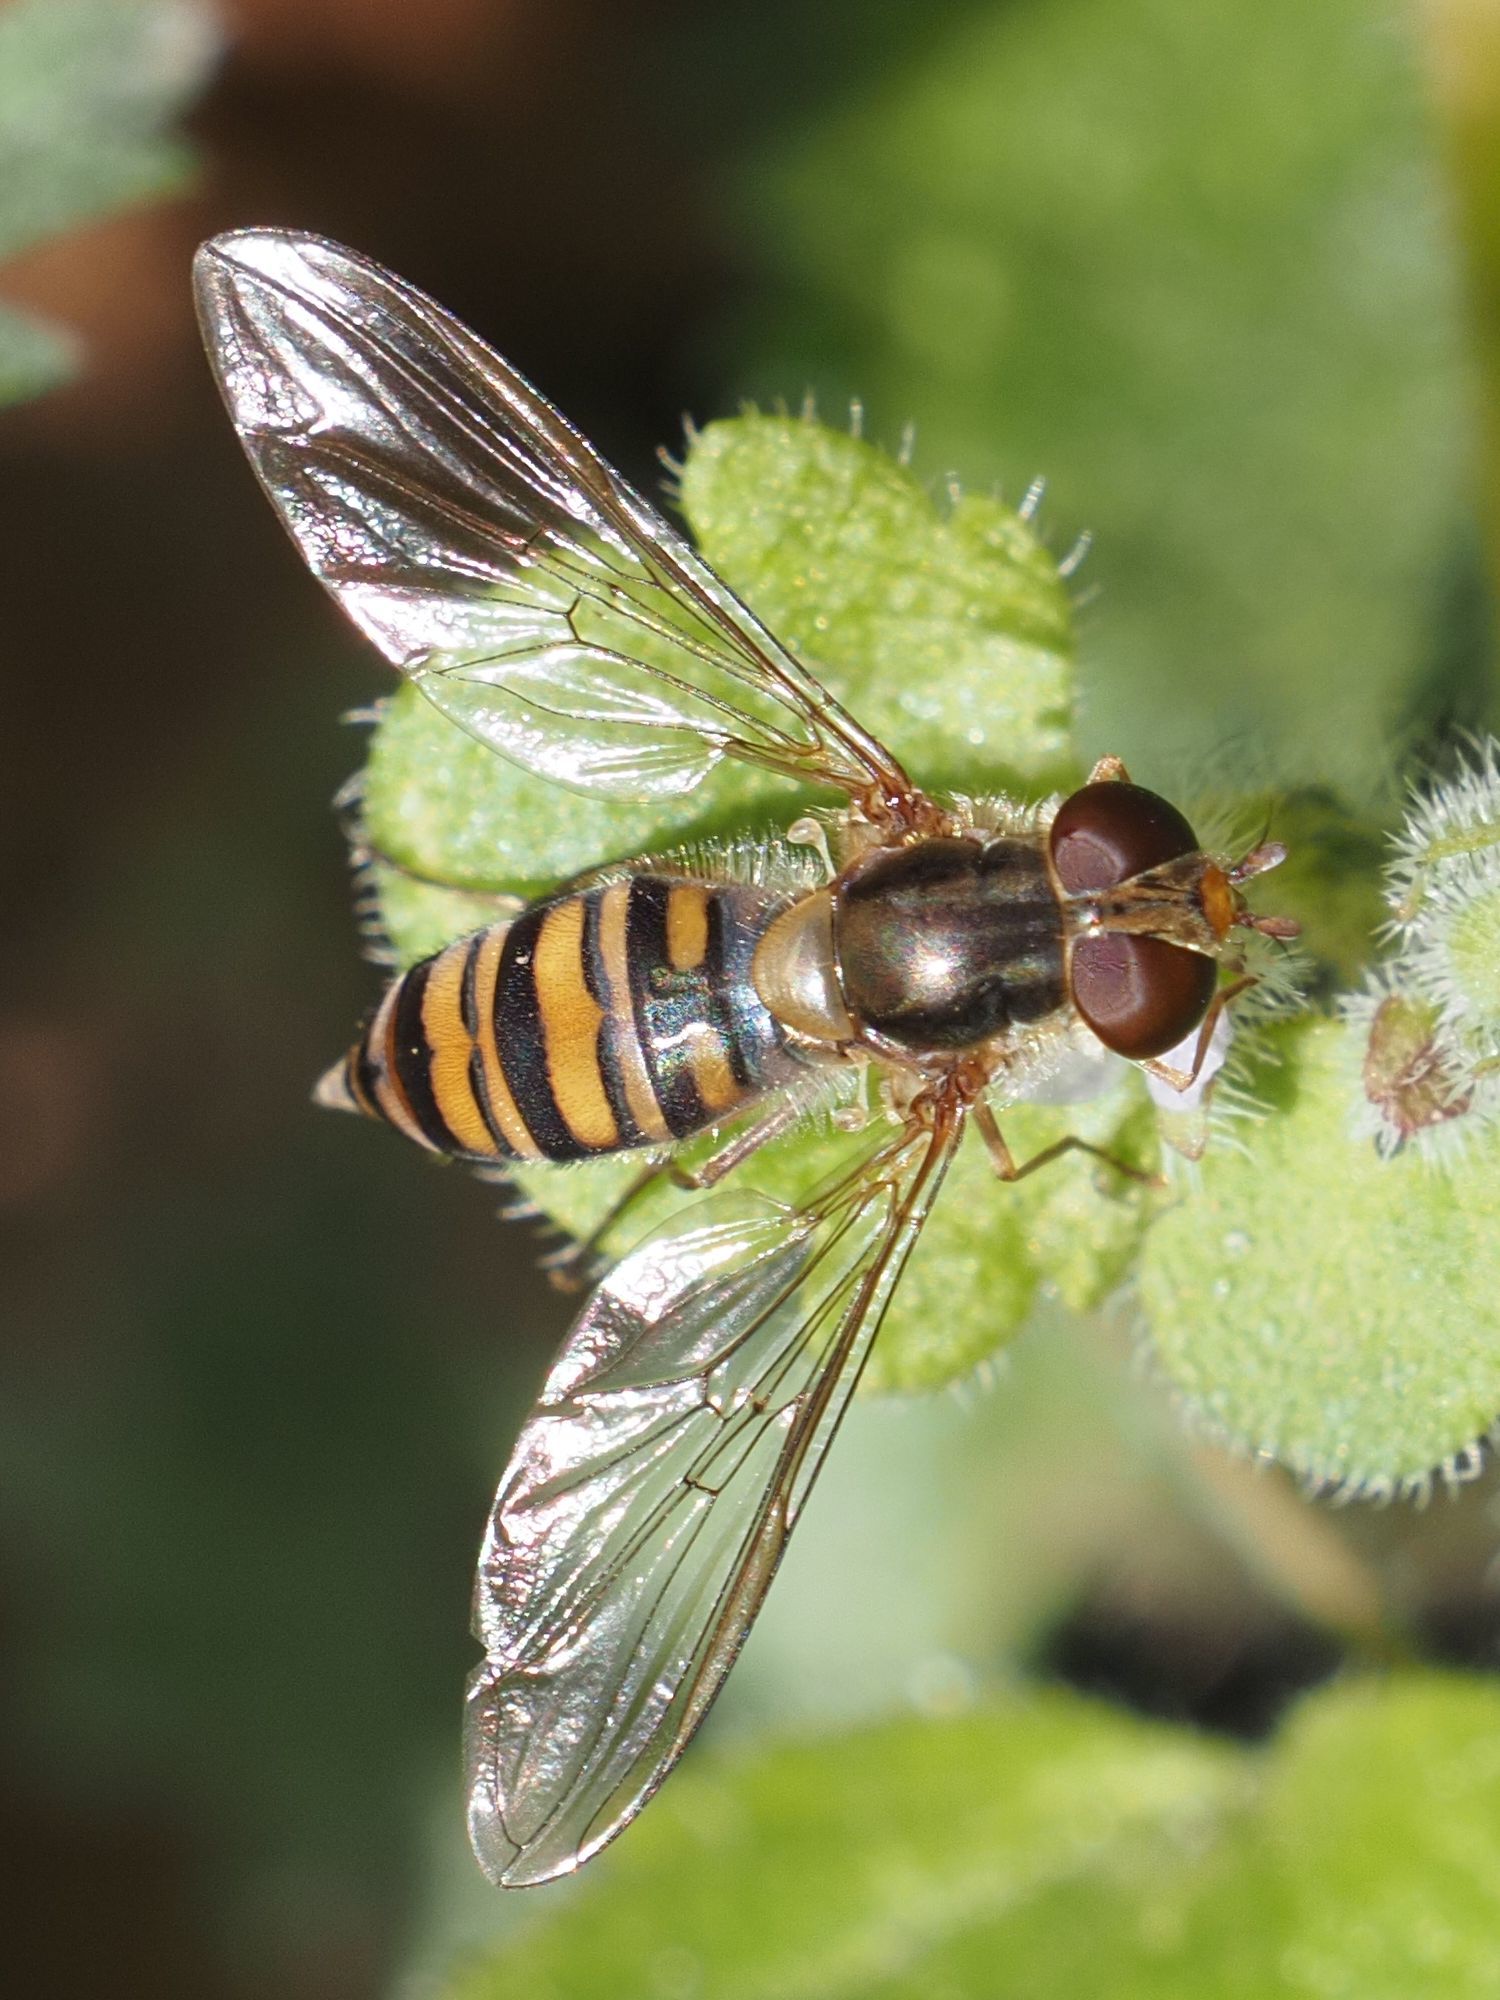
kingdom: Animalia
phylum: Arthropoda
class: Insecta
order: Diptera
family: Syrphidae
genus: Episyrphus
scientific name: Episyrphus balteatus
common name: Marmalade hoverfly
